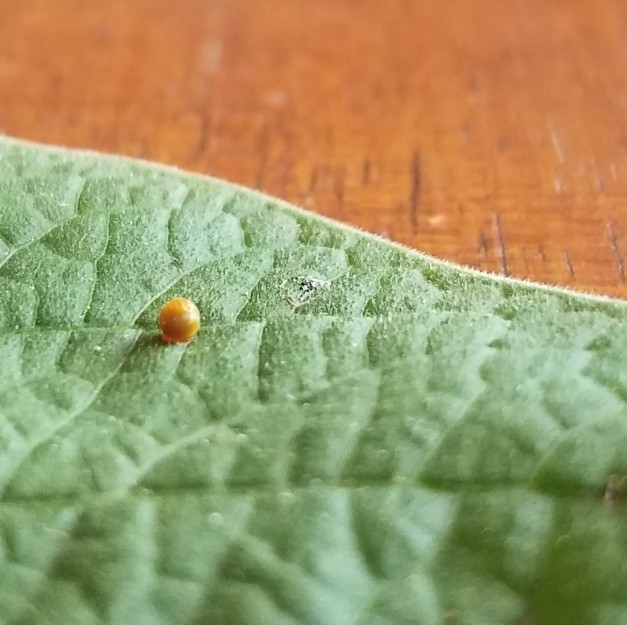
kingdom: Animalia
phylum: Arthropoda
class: Insecta
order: Lepidoptera
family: Papilionidae
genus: Papilio
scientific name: Papilio rumiko
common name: Western giant swallowtail
